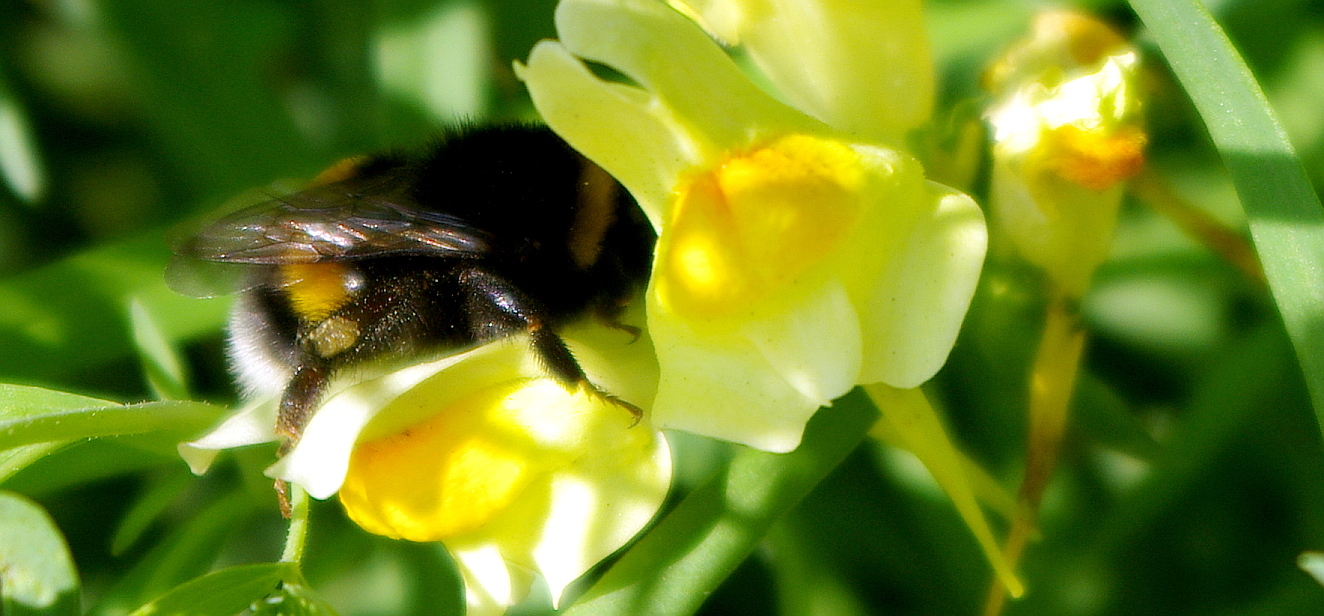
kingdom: Plantae
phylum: Tracheophyta
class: Magnoliopsida
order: Lamiales
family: Plantaginaceae
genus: Linaria
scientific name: Linaria vulgaris
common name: Butter and eggs
